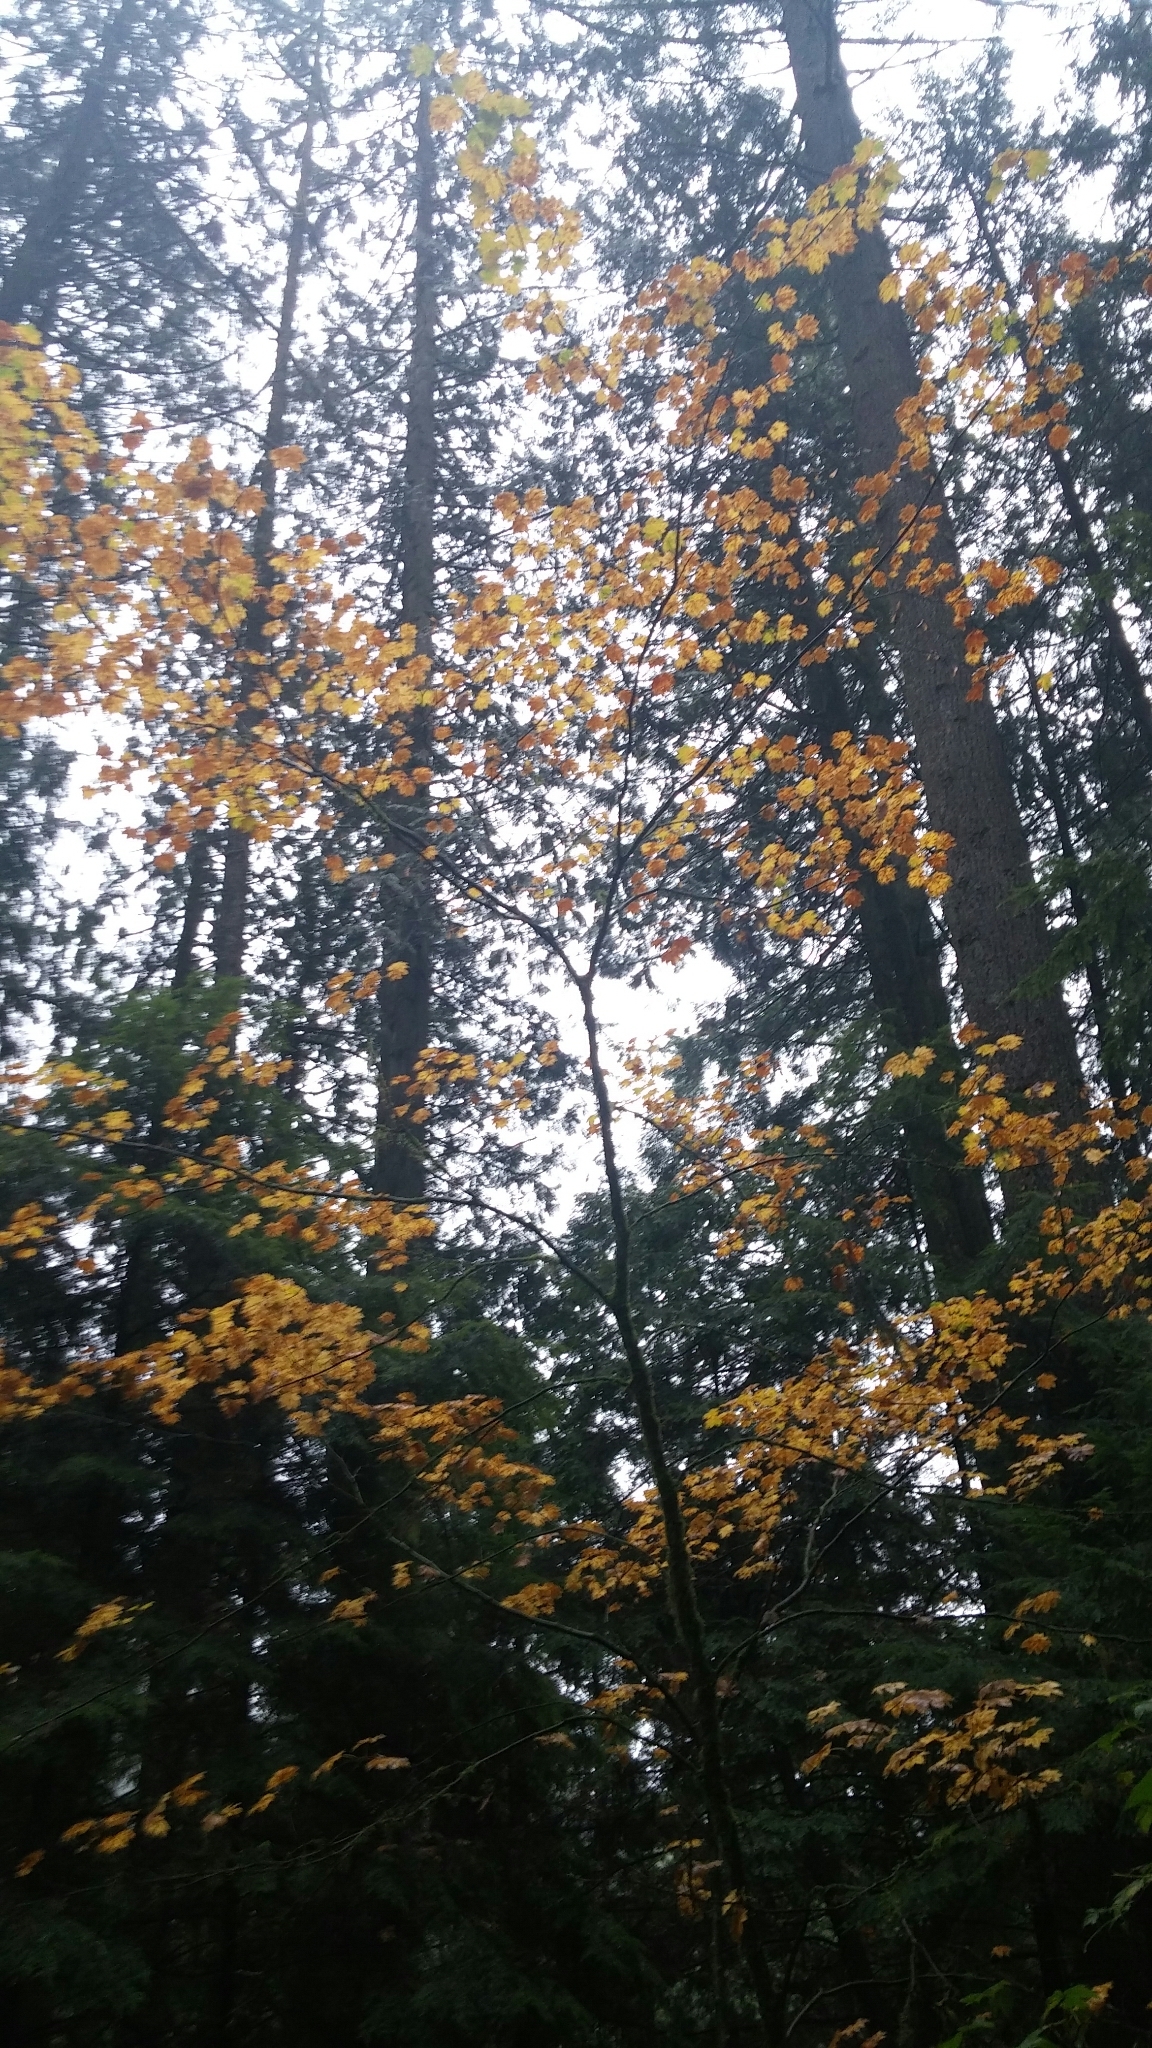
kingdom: Plantae
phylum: Tracheophyta
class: Magnoliopsida
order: Sapindales
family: Sapindaceae
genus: Acer
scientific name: Acer circinatum
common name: Vine maple
